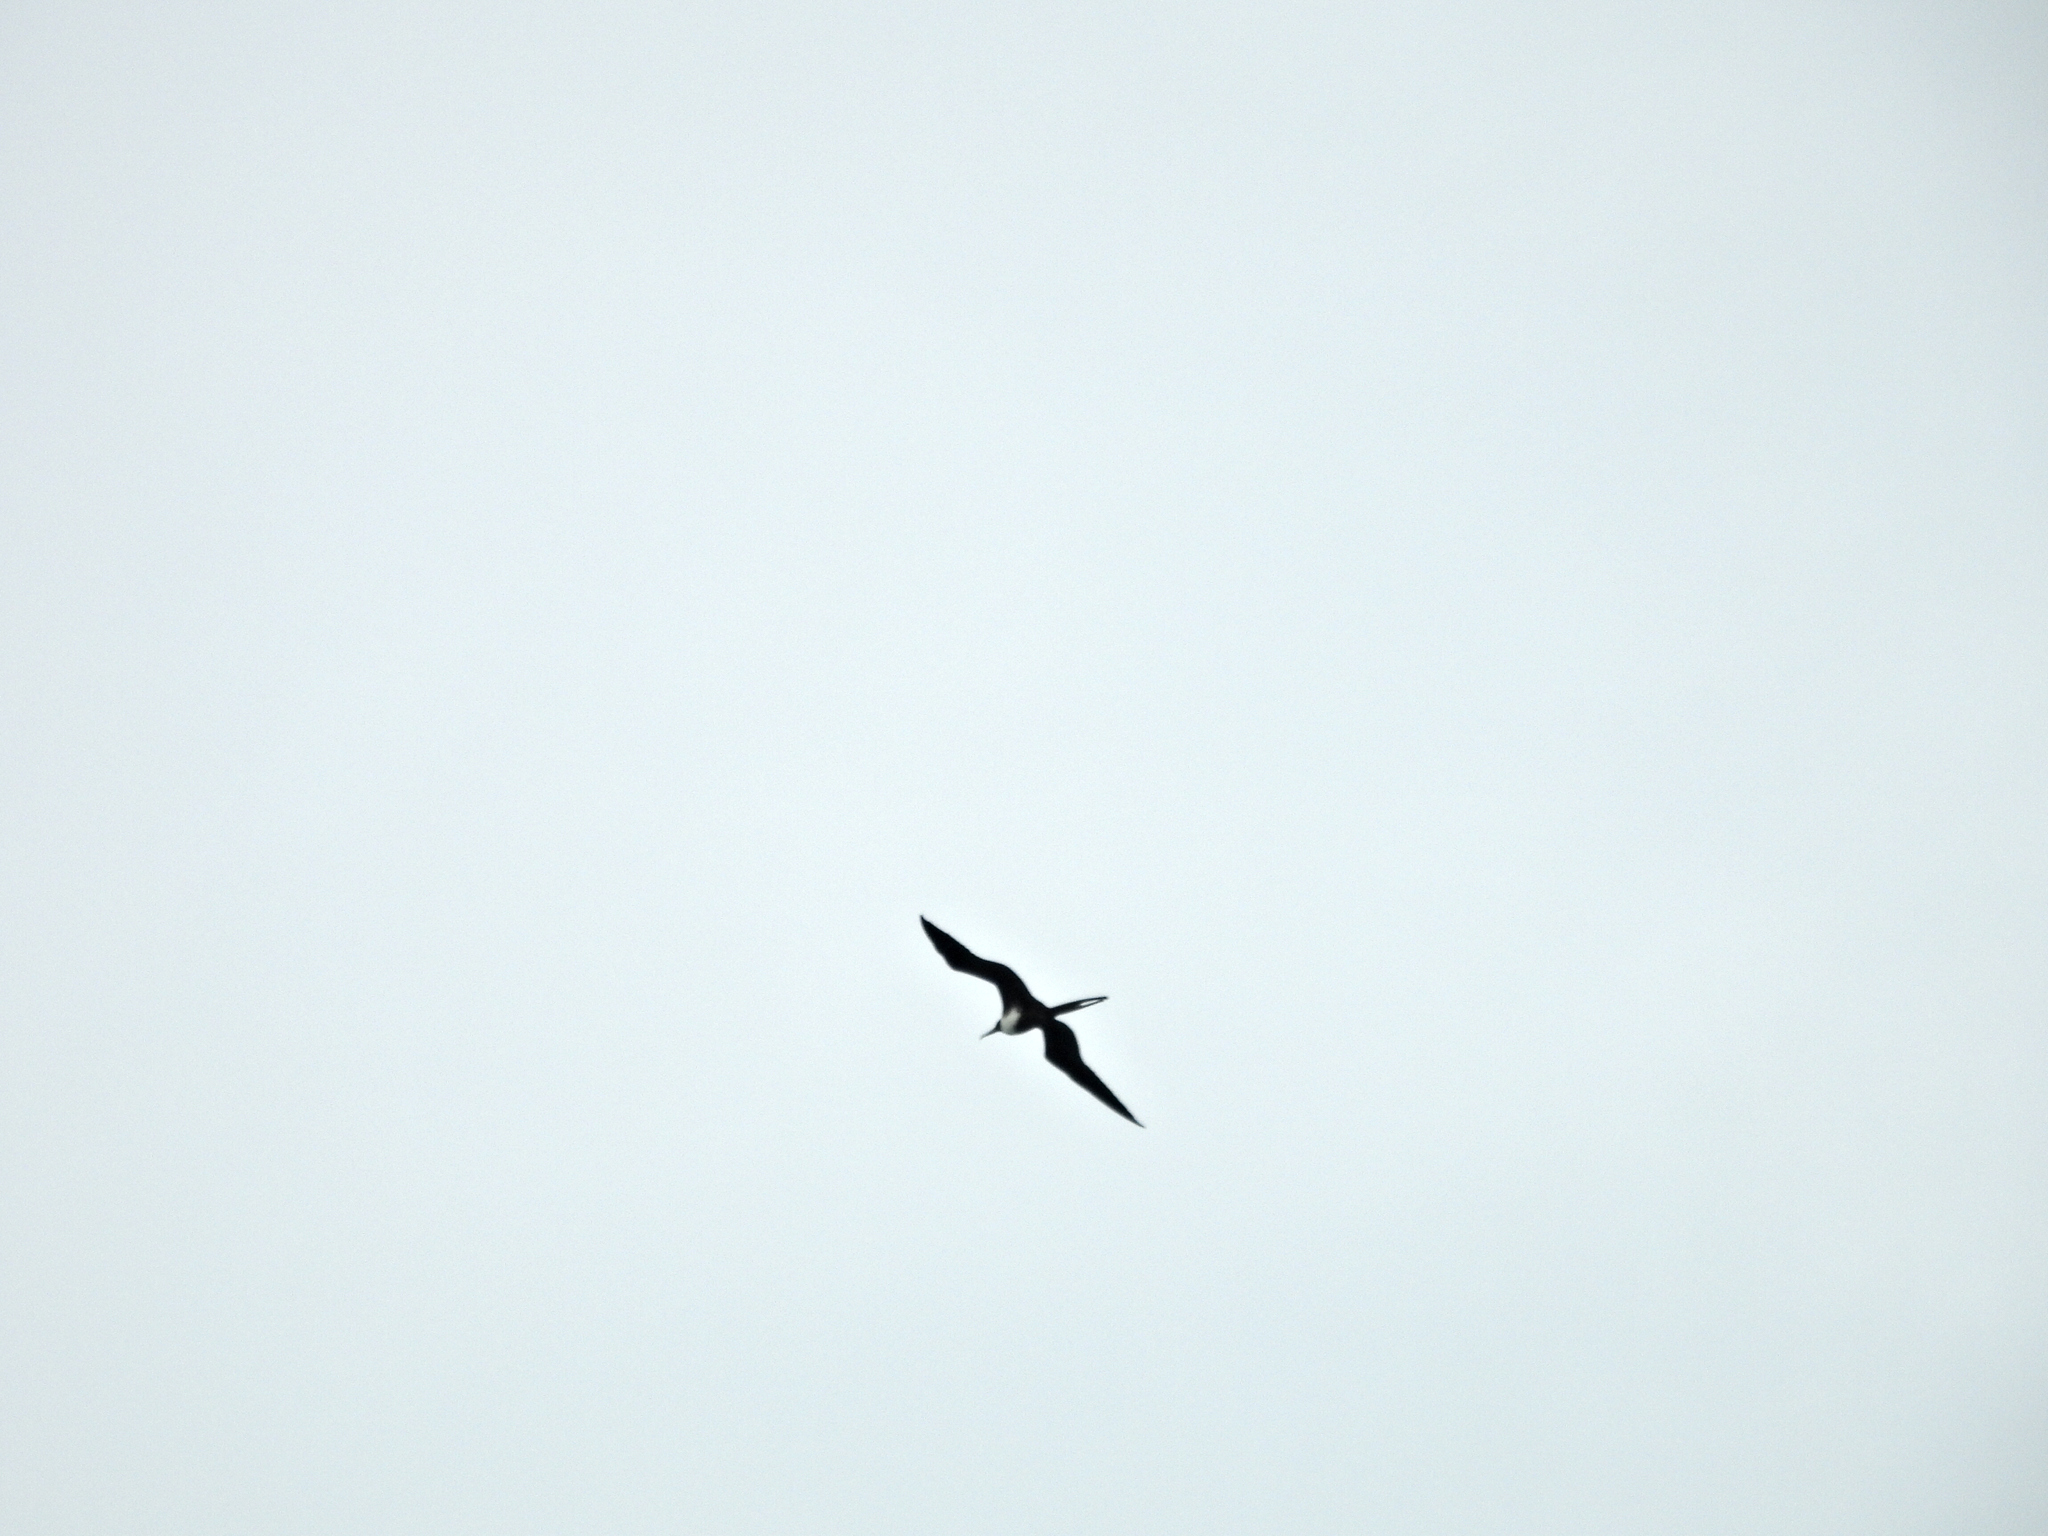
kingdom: Animalia
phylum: Chordata
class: Aves
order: Suliformes
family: Fregatidae
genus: Fregata
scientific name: Fregata magnificens
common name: Magnificent frigatebird
